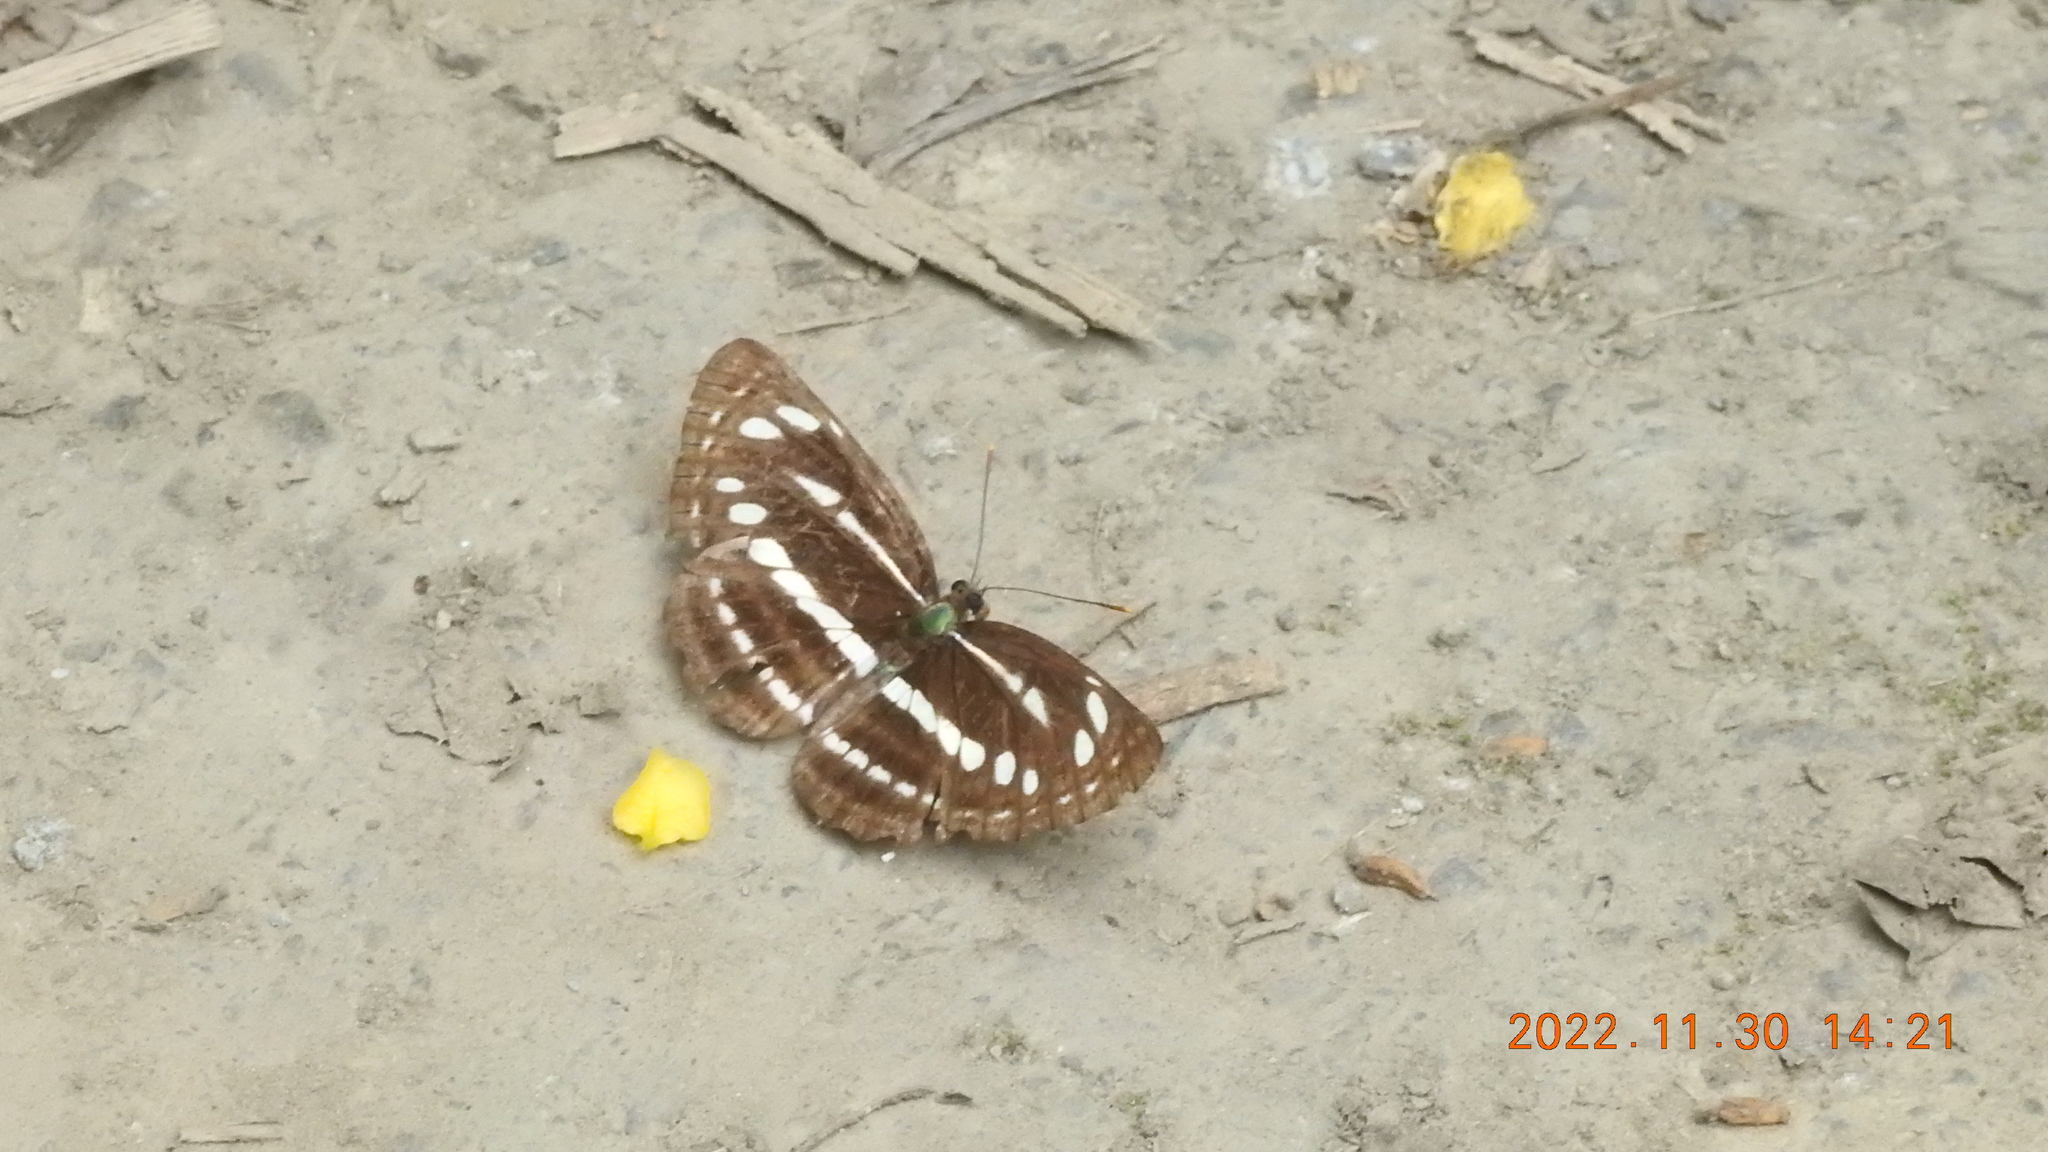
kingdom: Animalia
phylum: Arthropoda
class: Insecta
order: Lepidoptera
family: Nymphalidae
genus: Neptis
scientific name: Neptis nata
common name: Sullied brown sailer
